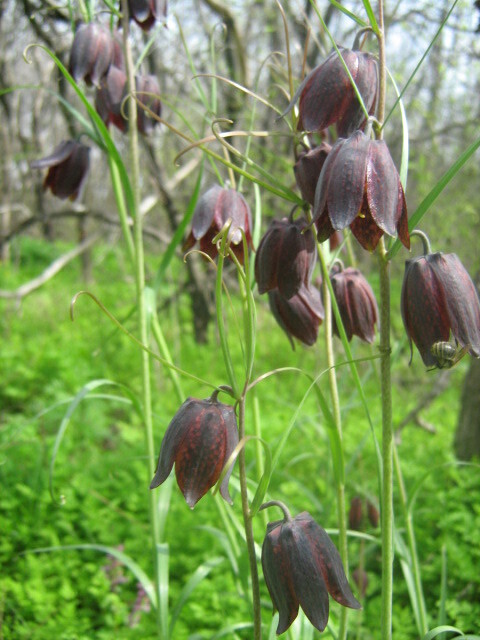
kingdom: Plantae
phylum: Tracheophyta
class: Liliopsida
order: Liliales
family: Liliaceae
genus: Fritillaria
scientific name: Fritillaria ruthenica
